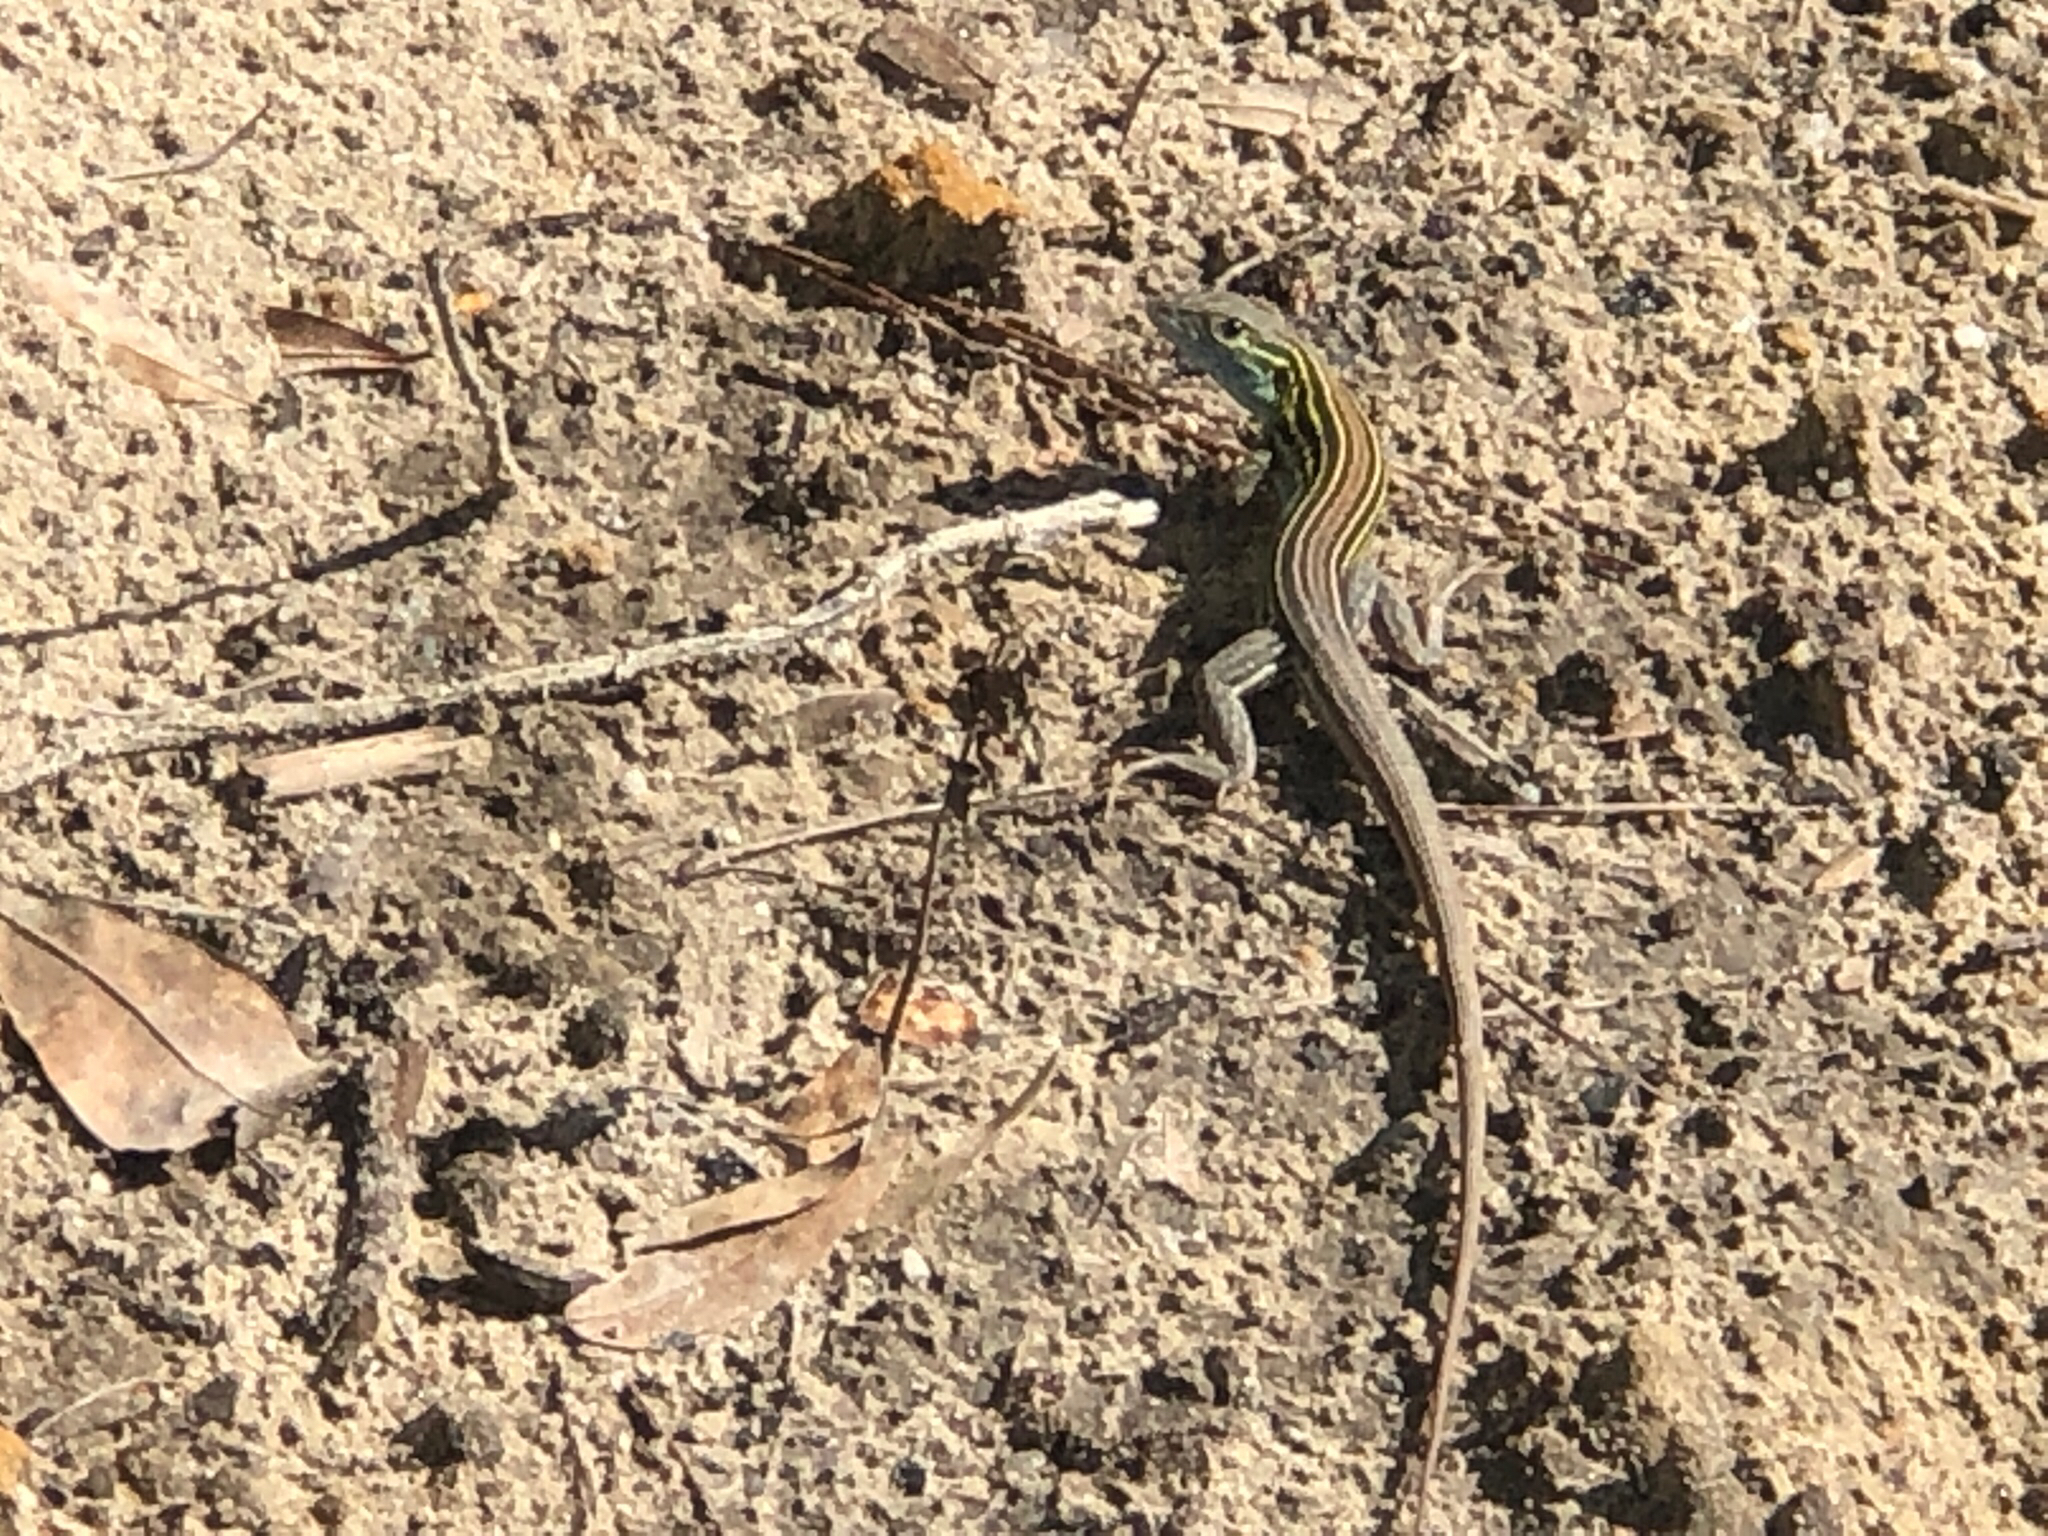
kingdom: Animalia
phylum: Chordata
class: Squamata
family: Teiidae
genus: Aspidoscelis
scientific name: Aspidoscelis sexlineatus
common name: Six-lined racerunner
